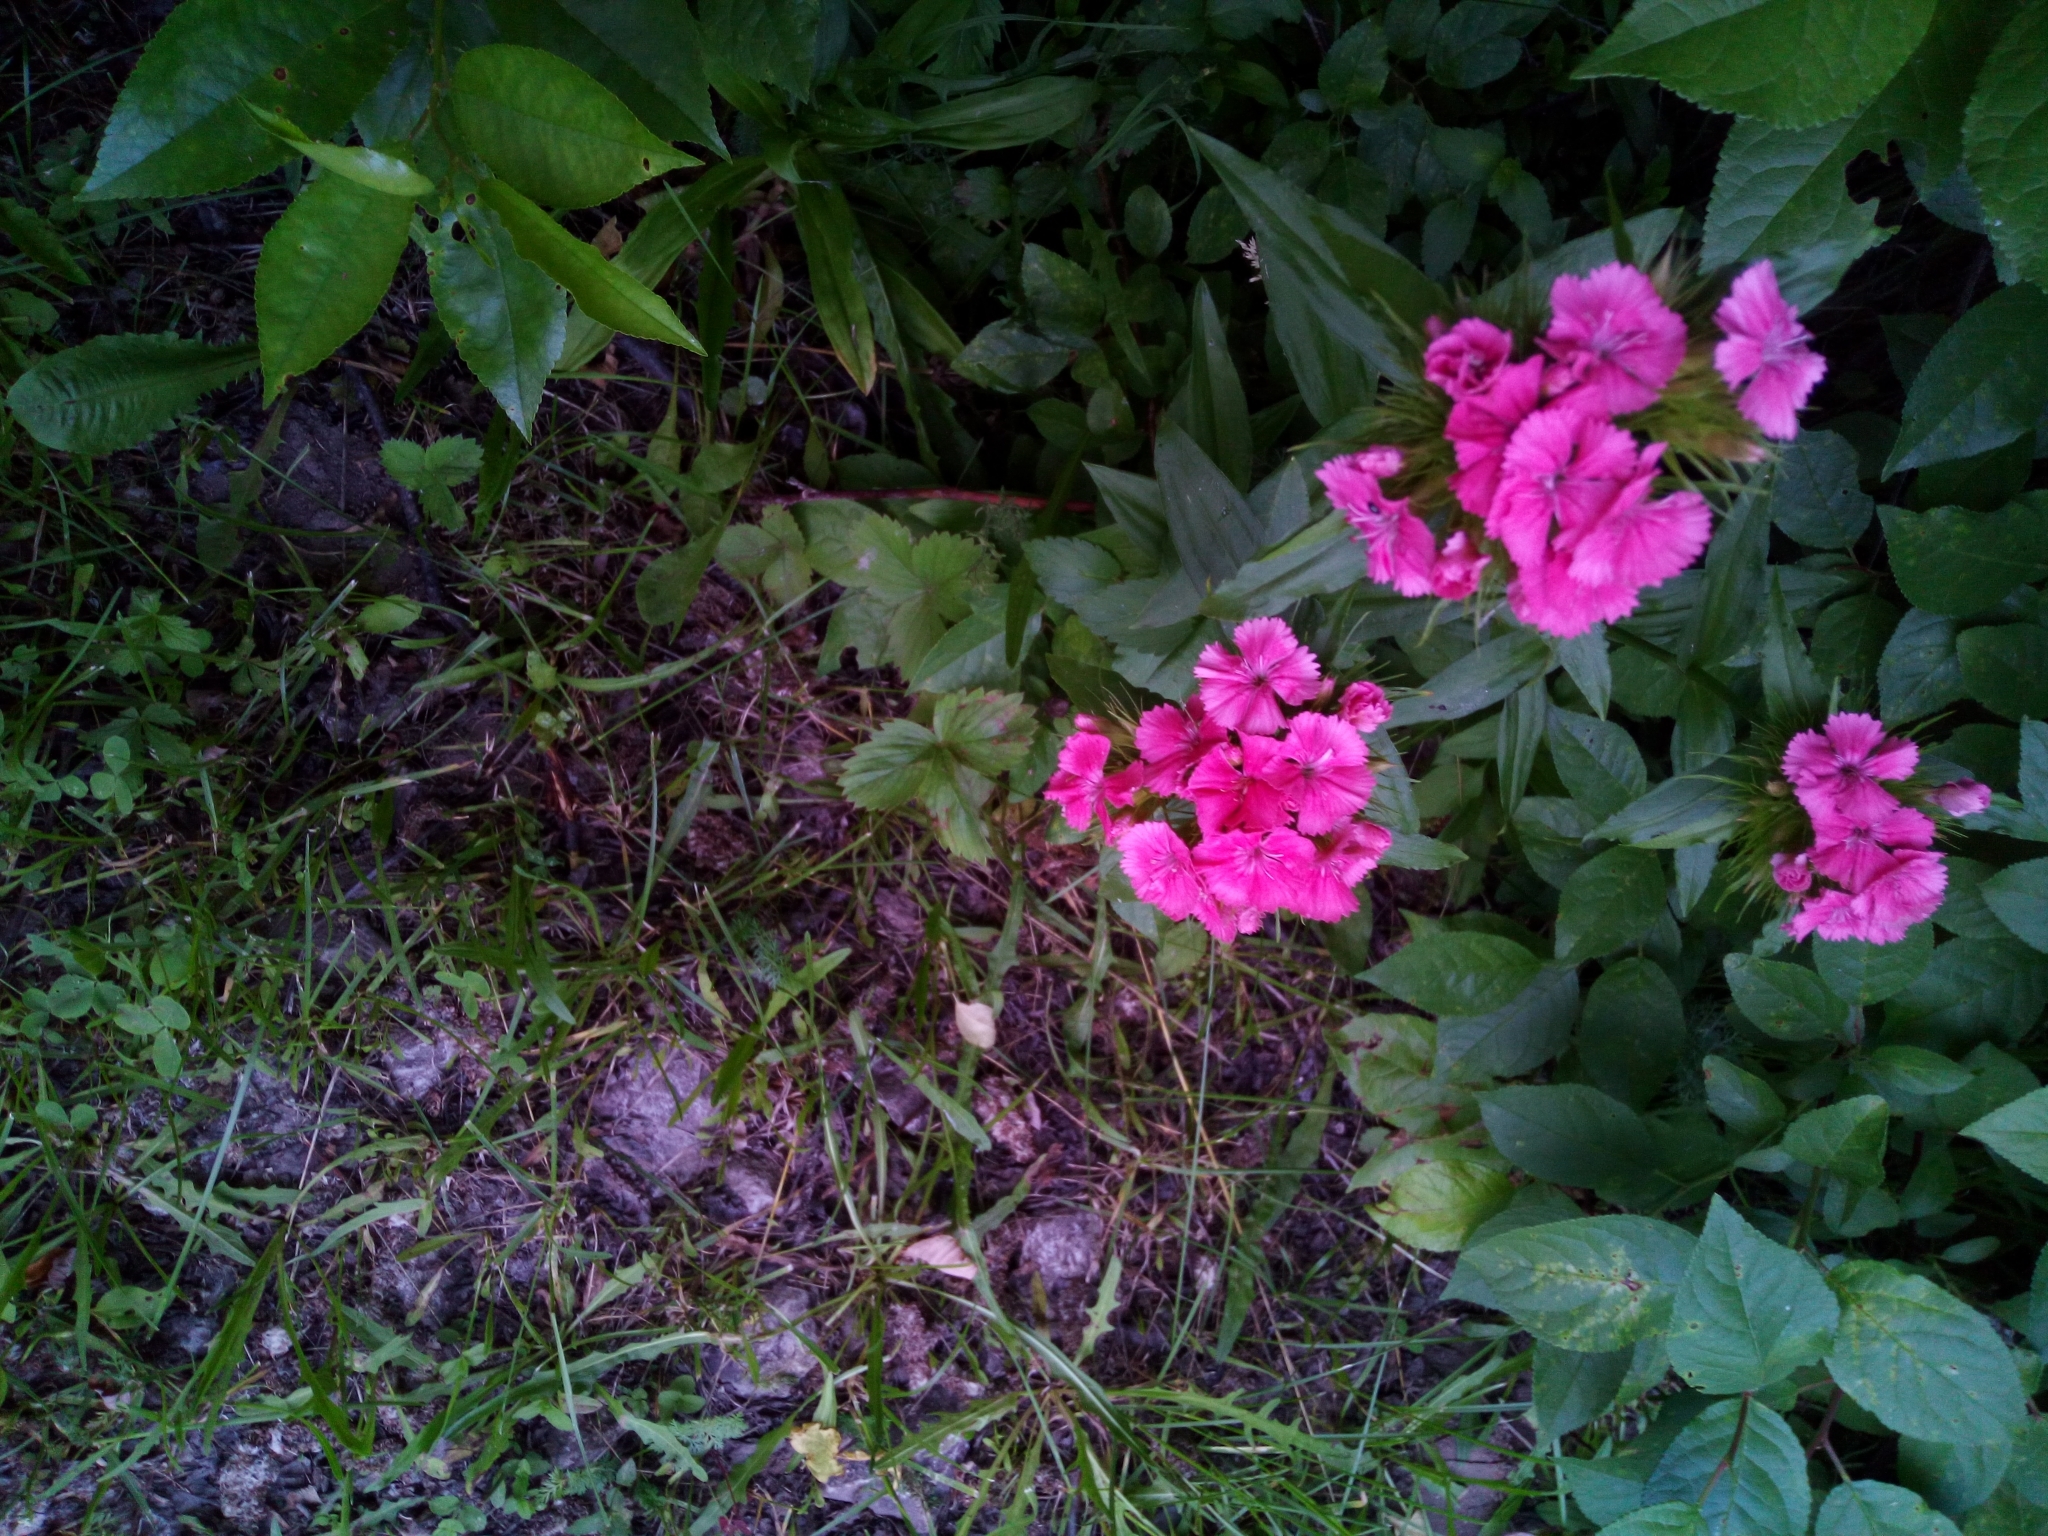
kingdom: Plantae
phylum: Tracheophyta
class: Magnoliopsida
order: Caryophyllales
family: Caryophyllaceae
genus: Dianthus
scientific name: Dianthus barbatus
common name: Sweet-william
